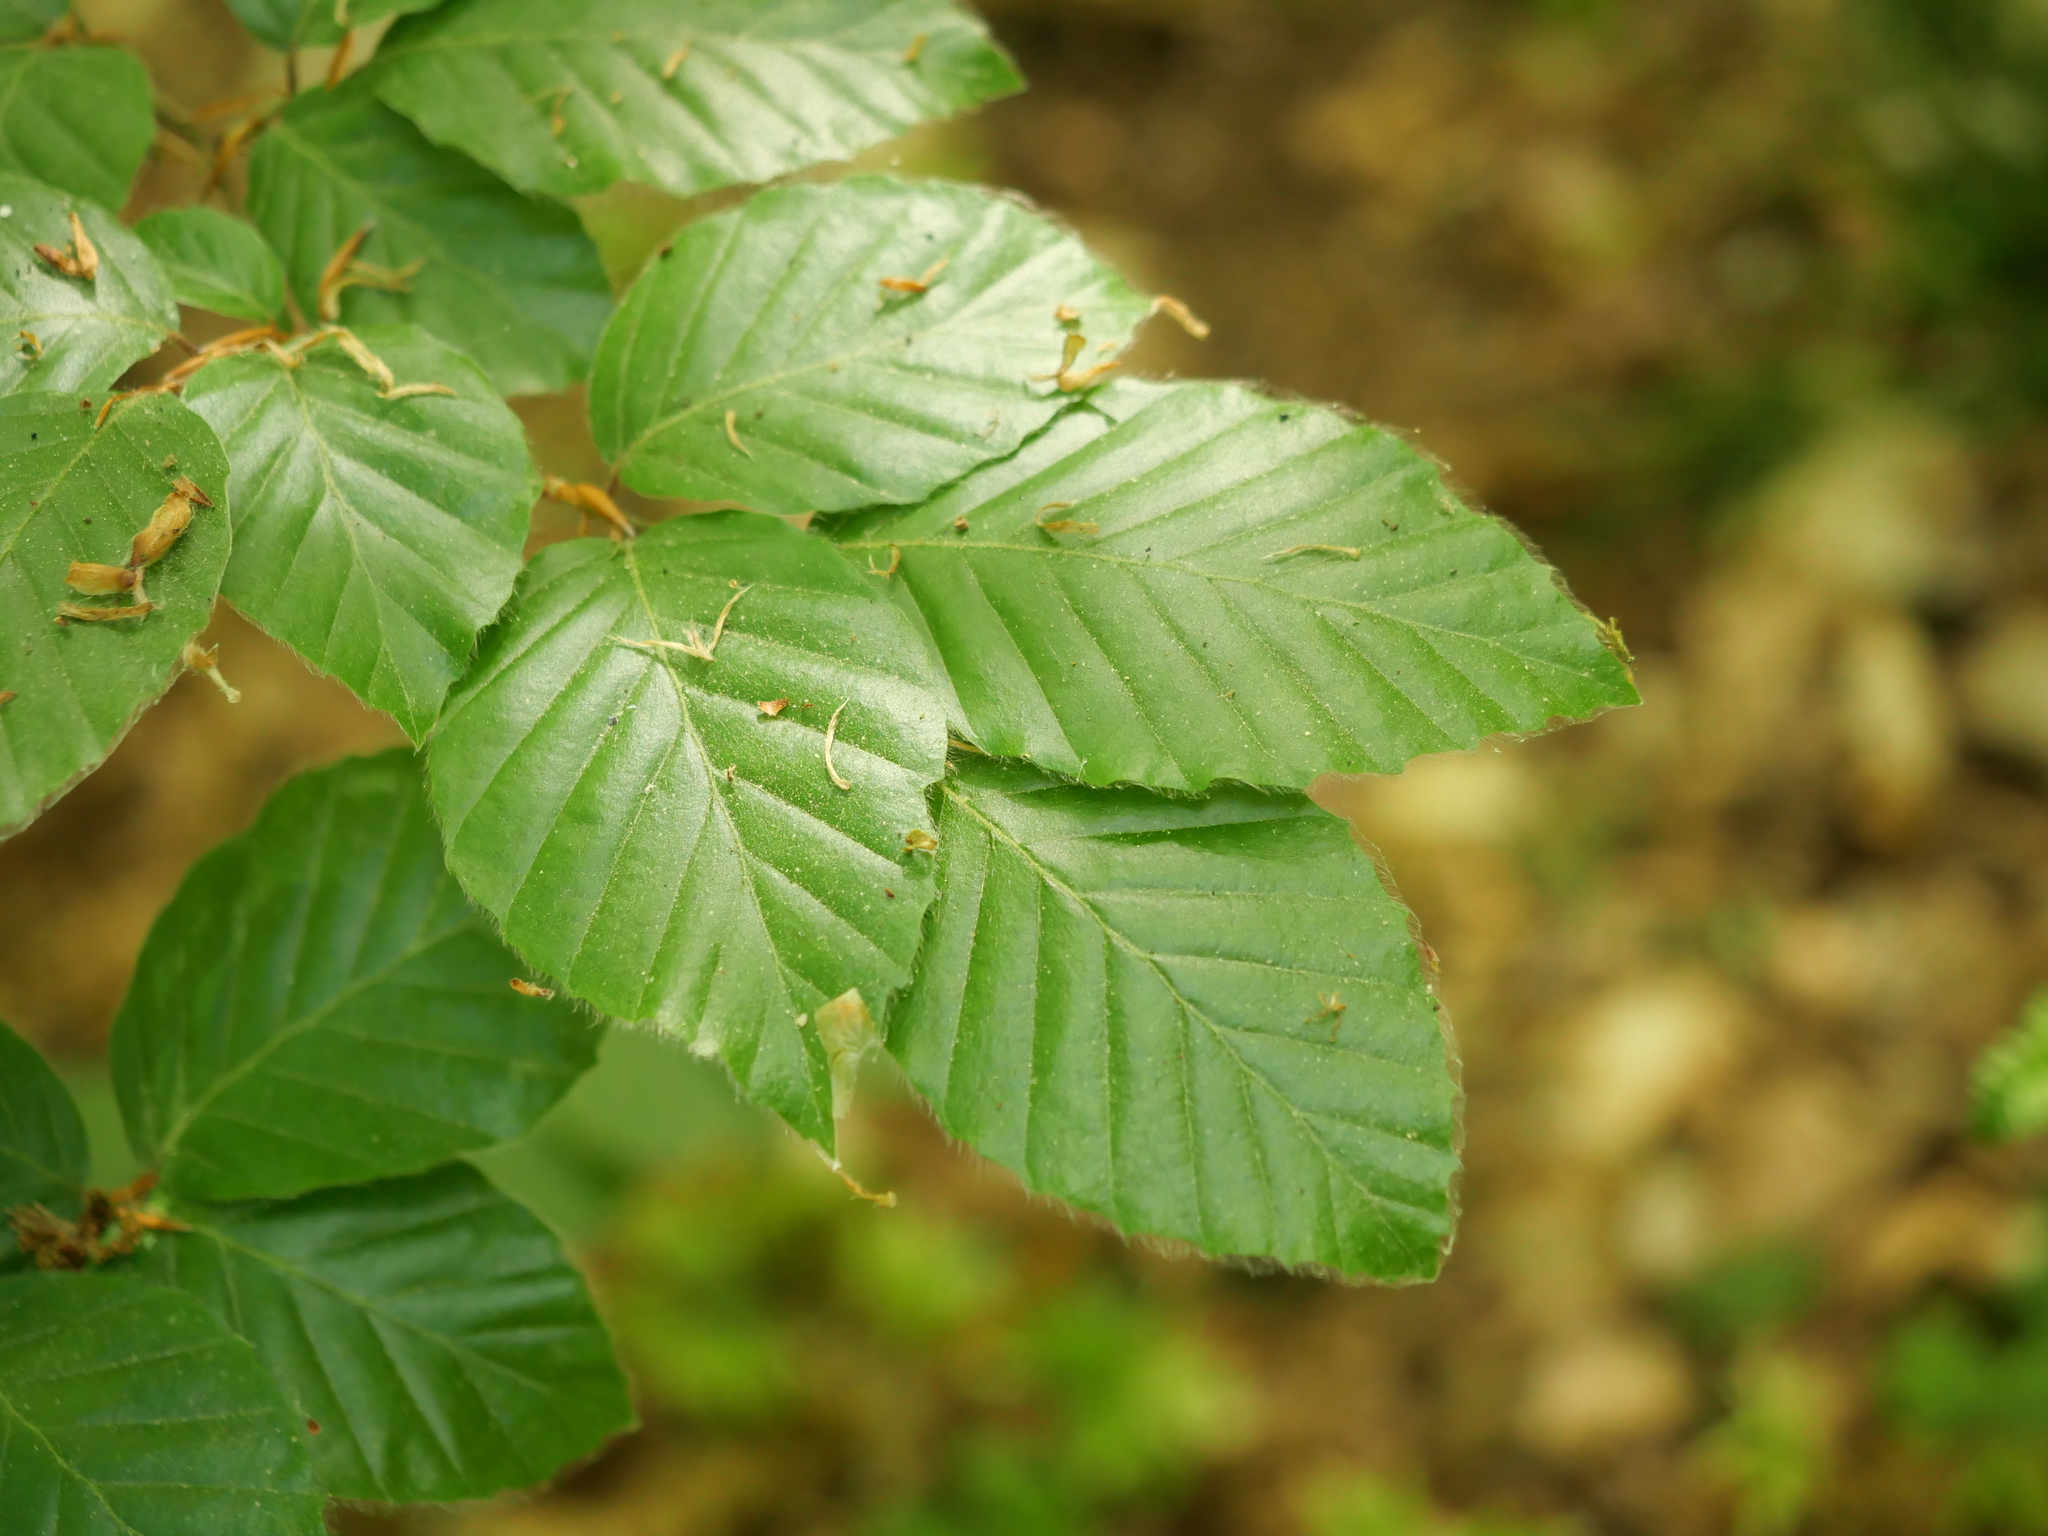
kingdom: Plantae
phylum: Tracheophyta
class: Magnoliopsida
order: Fagales
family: Fagaceae
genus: Fagus
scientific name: Fagus sylvatica
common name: Beech
